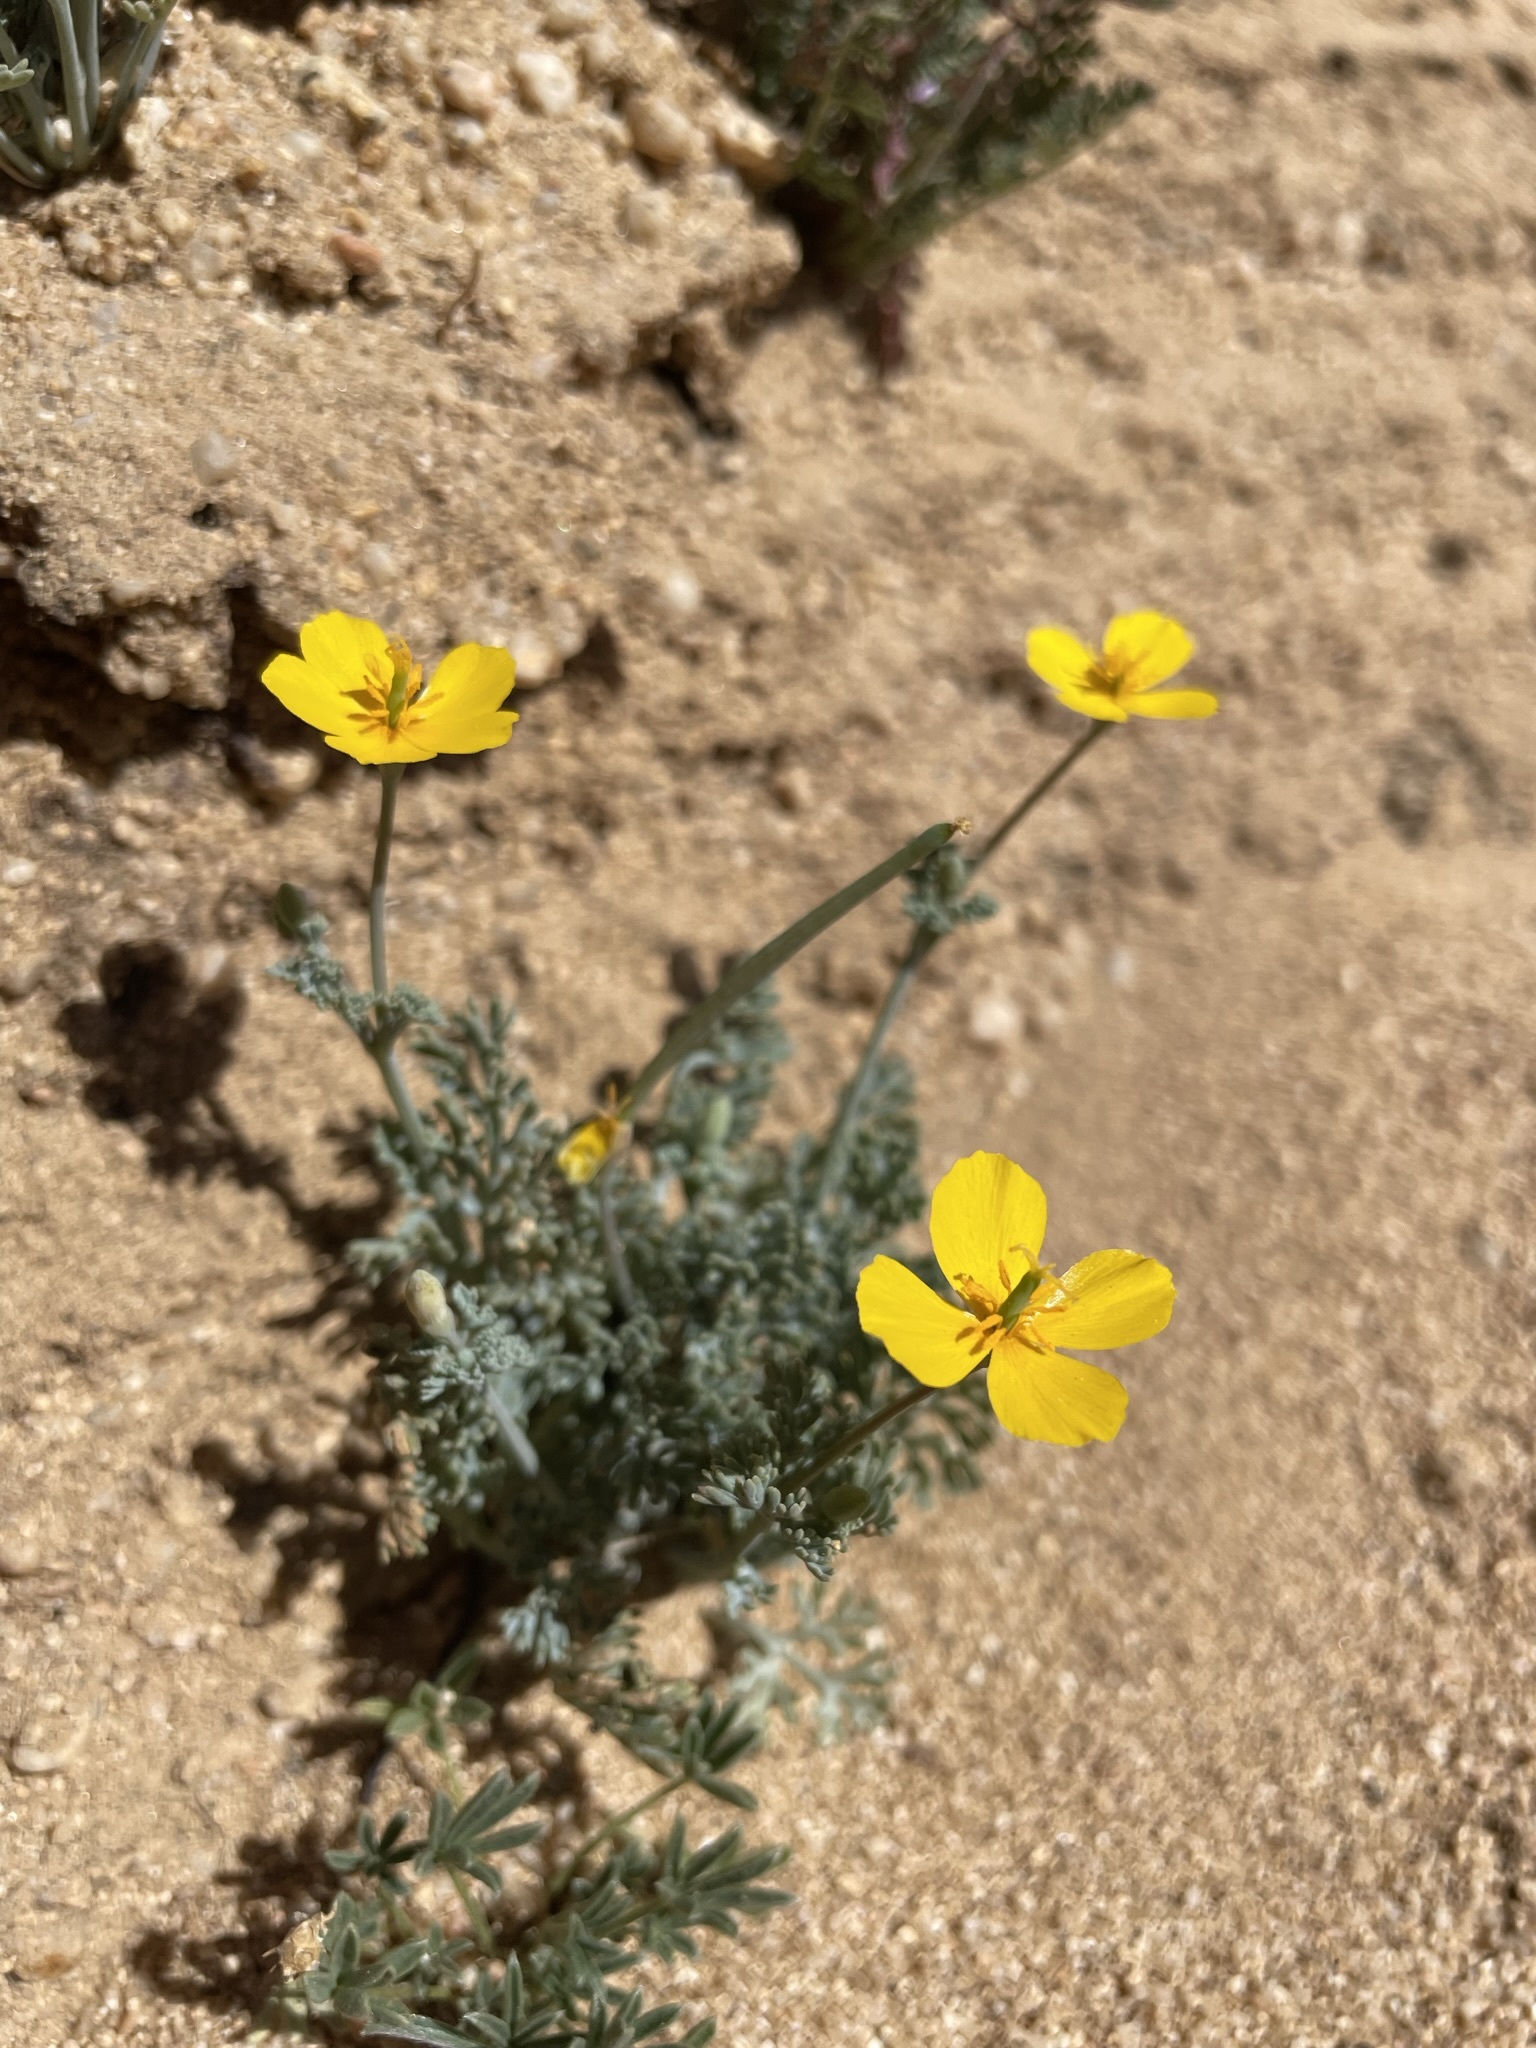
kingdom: Plantae
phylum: Tracheophyta
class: Magnoliopsida
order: Ranunculales
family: Papaveraceae
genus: Eschscholzia
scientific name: Eschscholzia minutiflora
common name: Small-flower california-poppy
